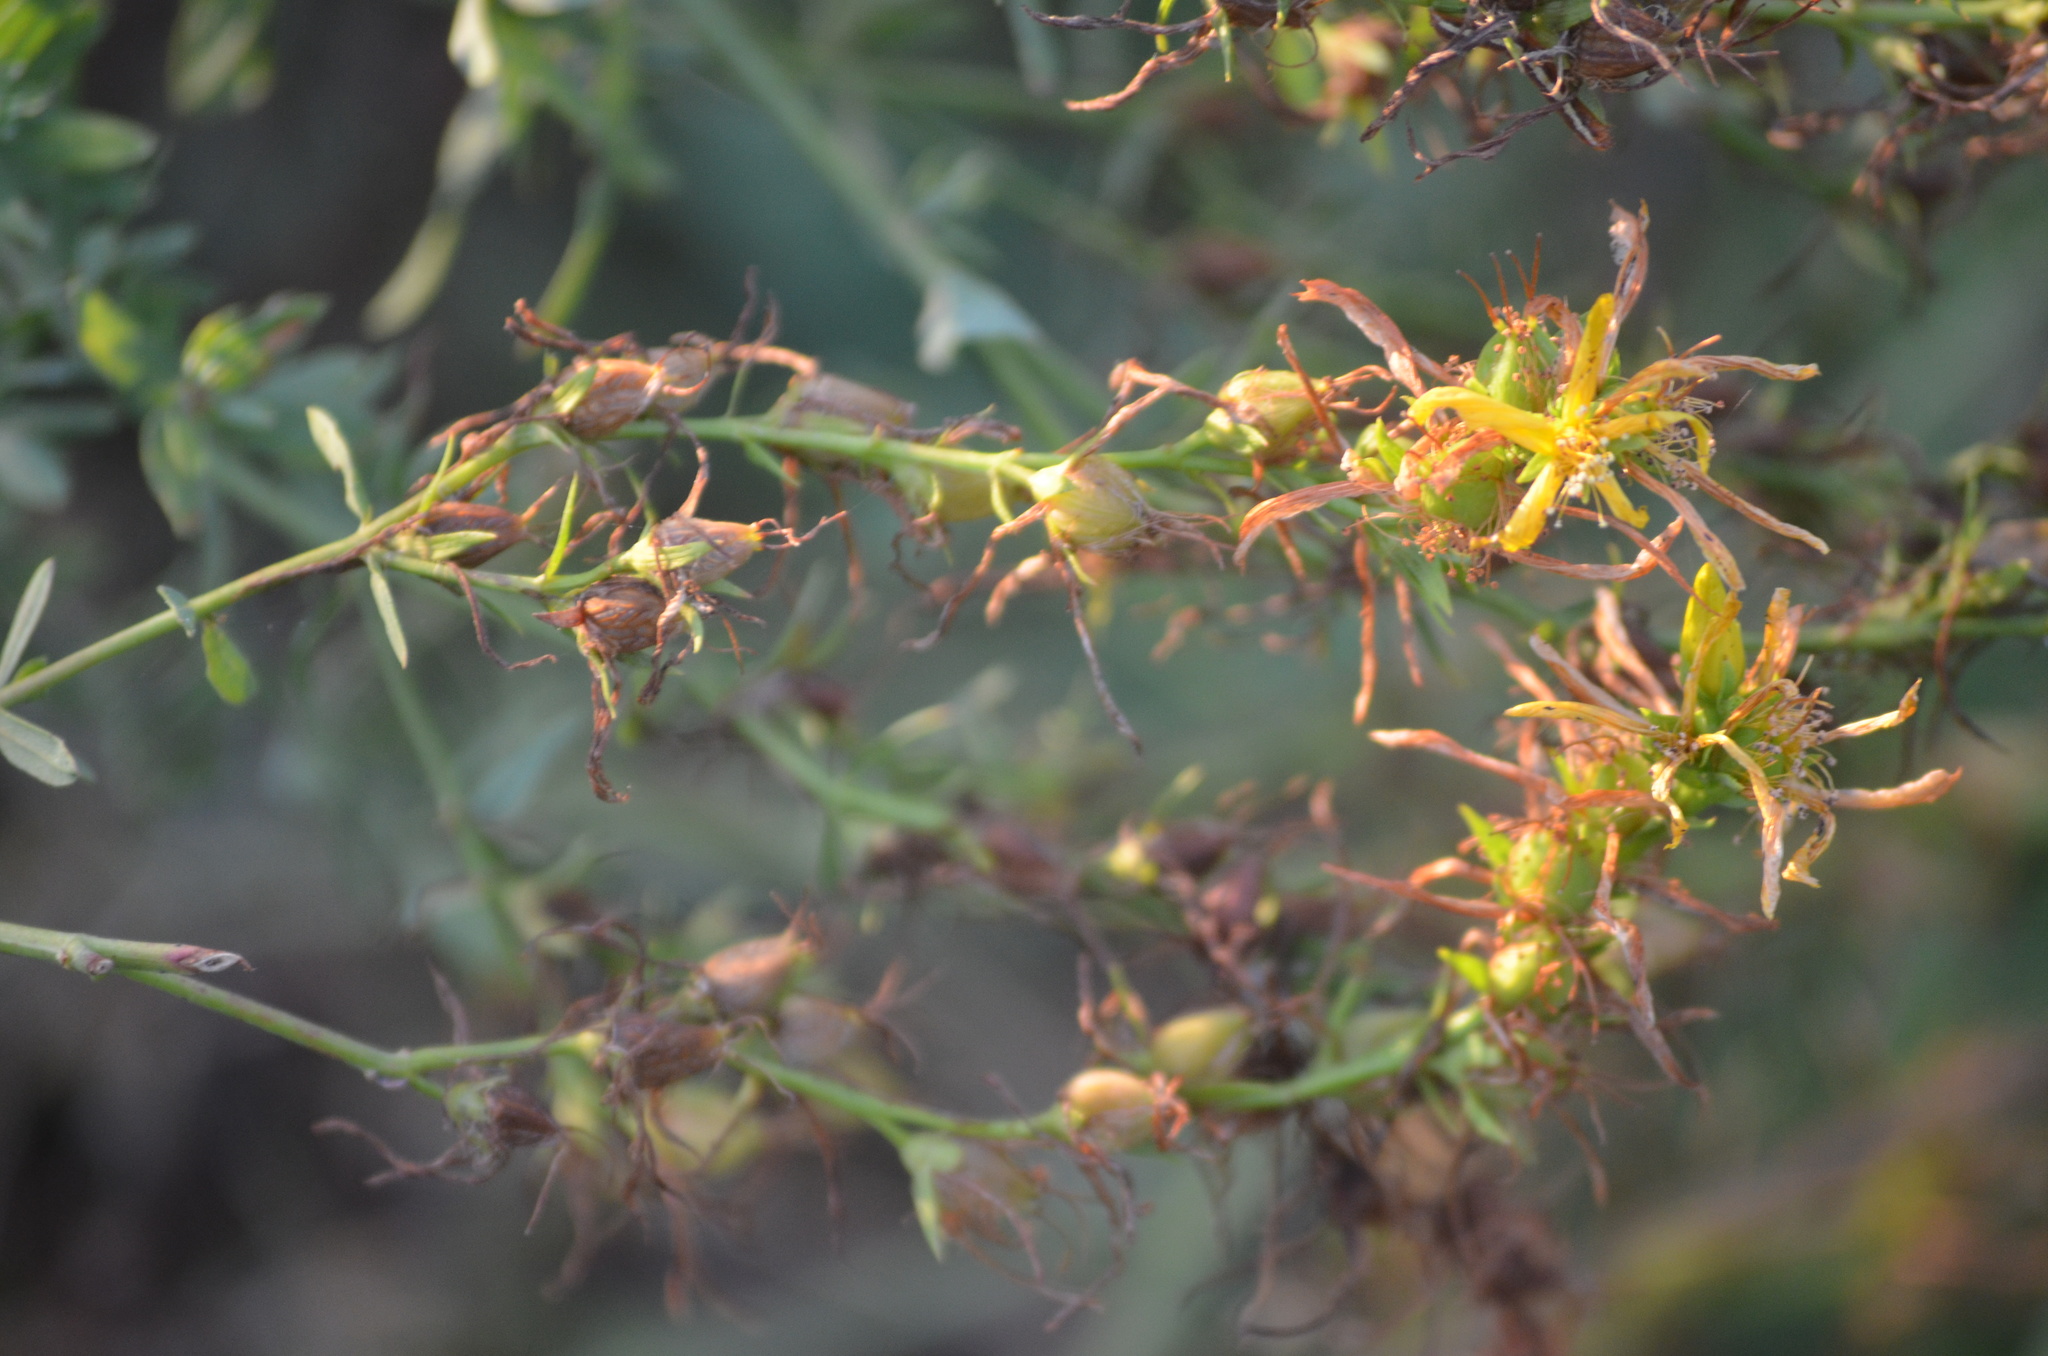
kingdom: Plantae
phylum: Tracheophyta
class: Magnoliopsida
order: Malpighiales
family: Hypericaceae
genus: Hypericum
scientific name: Hypericum perforatum
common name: Common st. johnswort
